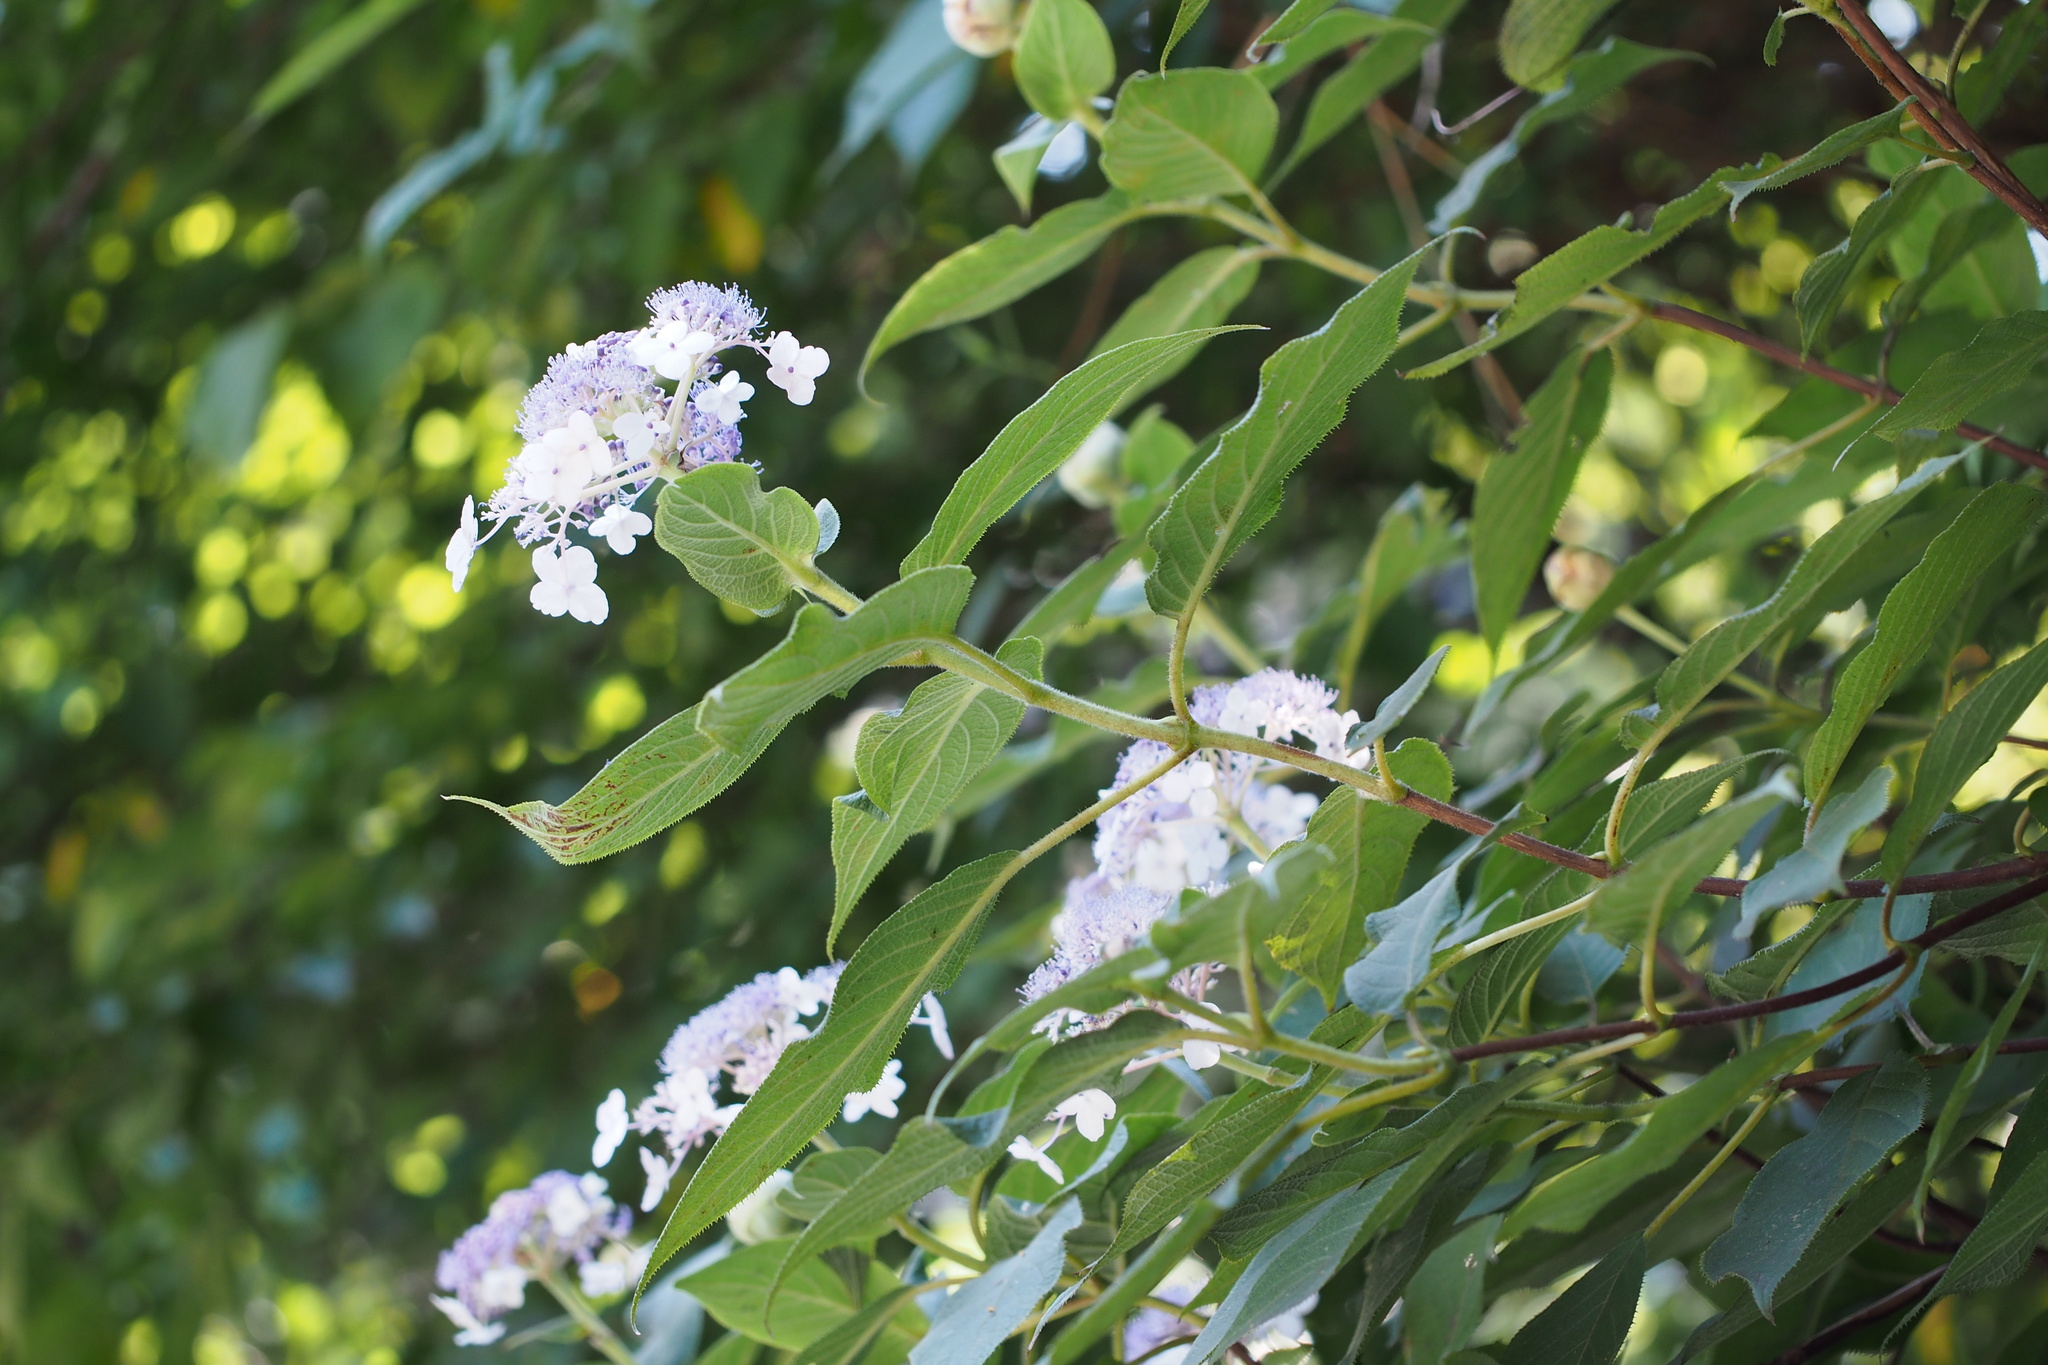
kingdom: Plantae
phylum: Tracheophyta
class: Magnoliopsida
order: Cornales
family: Hydrangeaceae
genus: Hydrangea
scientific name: Hydrangea involucrata
